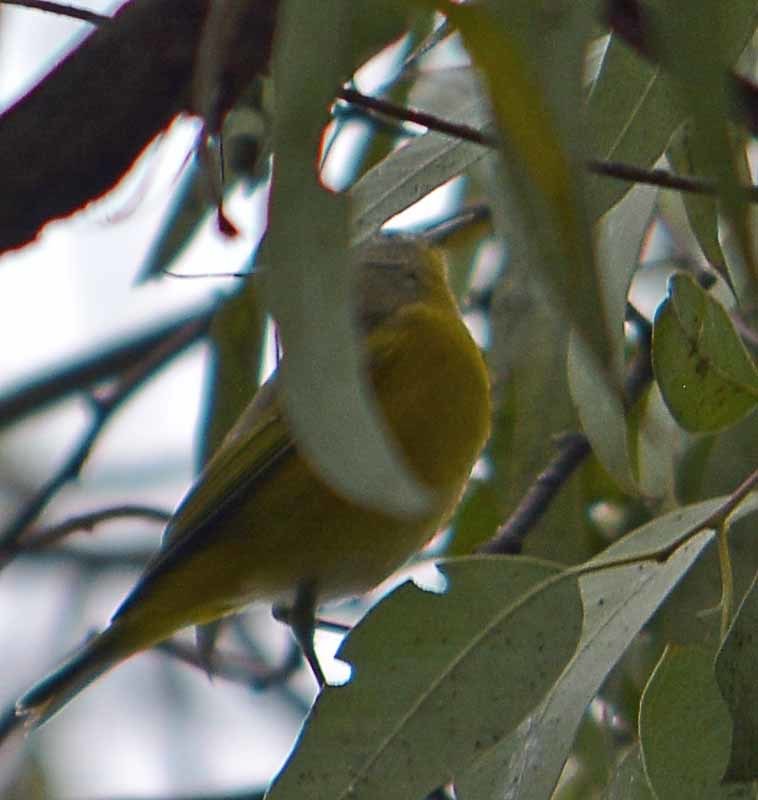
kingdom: Animalia
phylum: Chordata
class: Aves
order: Passeriformes
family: Parulidae
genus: Leiothlypis
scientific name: Leiothlypis ruficapilla
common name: Nashville warbler
